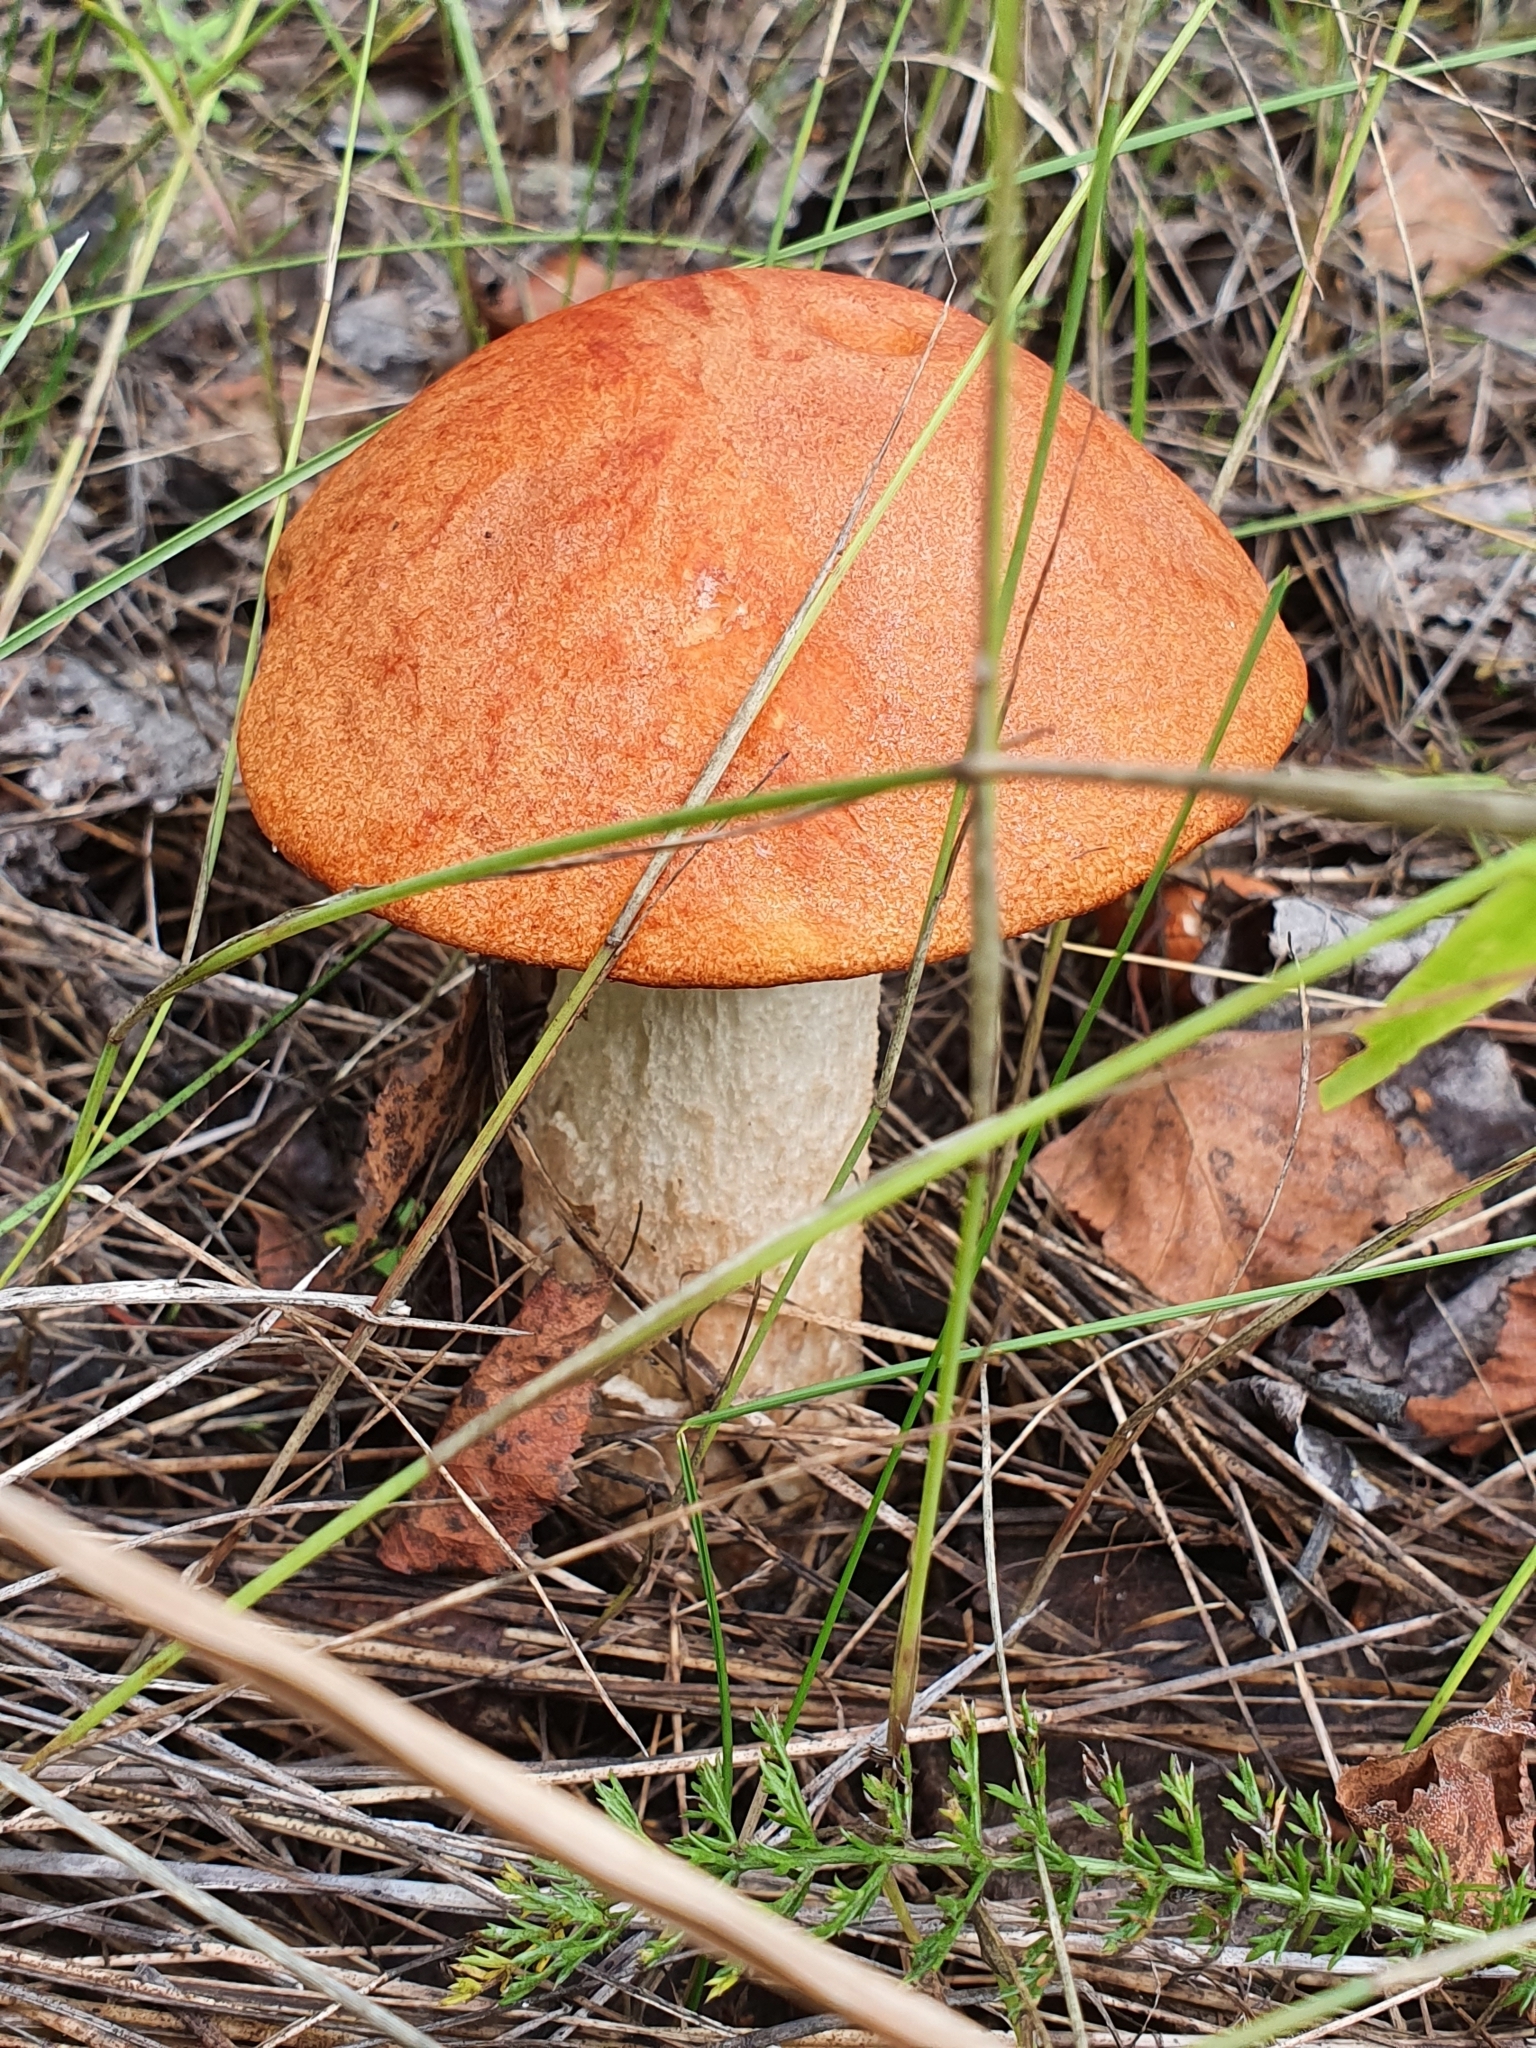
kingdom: Fungi
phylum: Basidiomycota
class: Agaricomycetes
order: Boletales
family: Boletaceae
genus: Leccinum
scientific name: Leccinum albostipitatum
